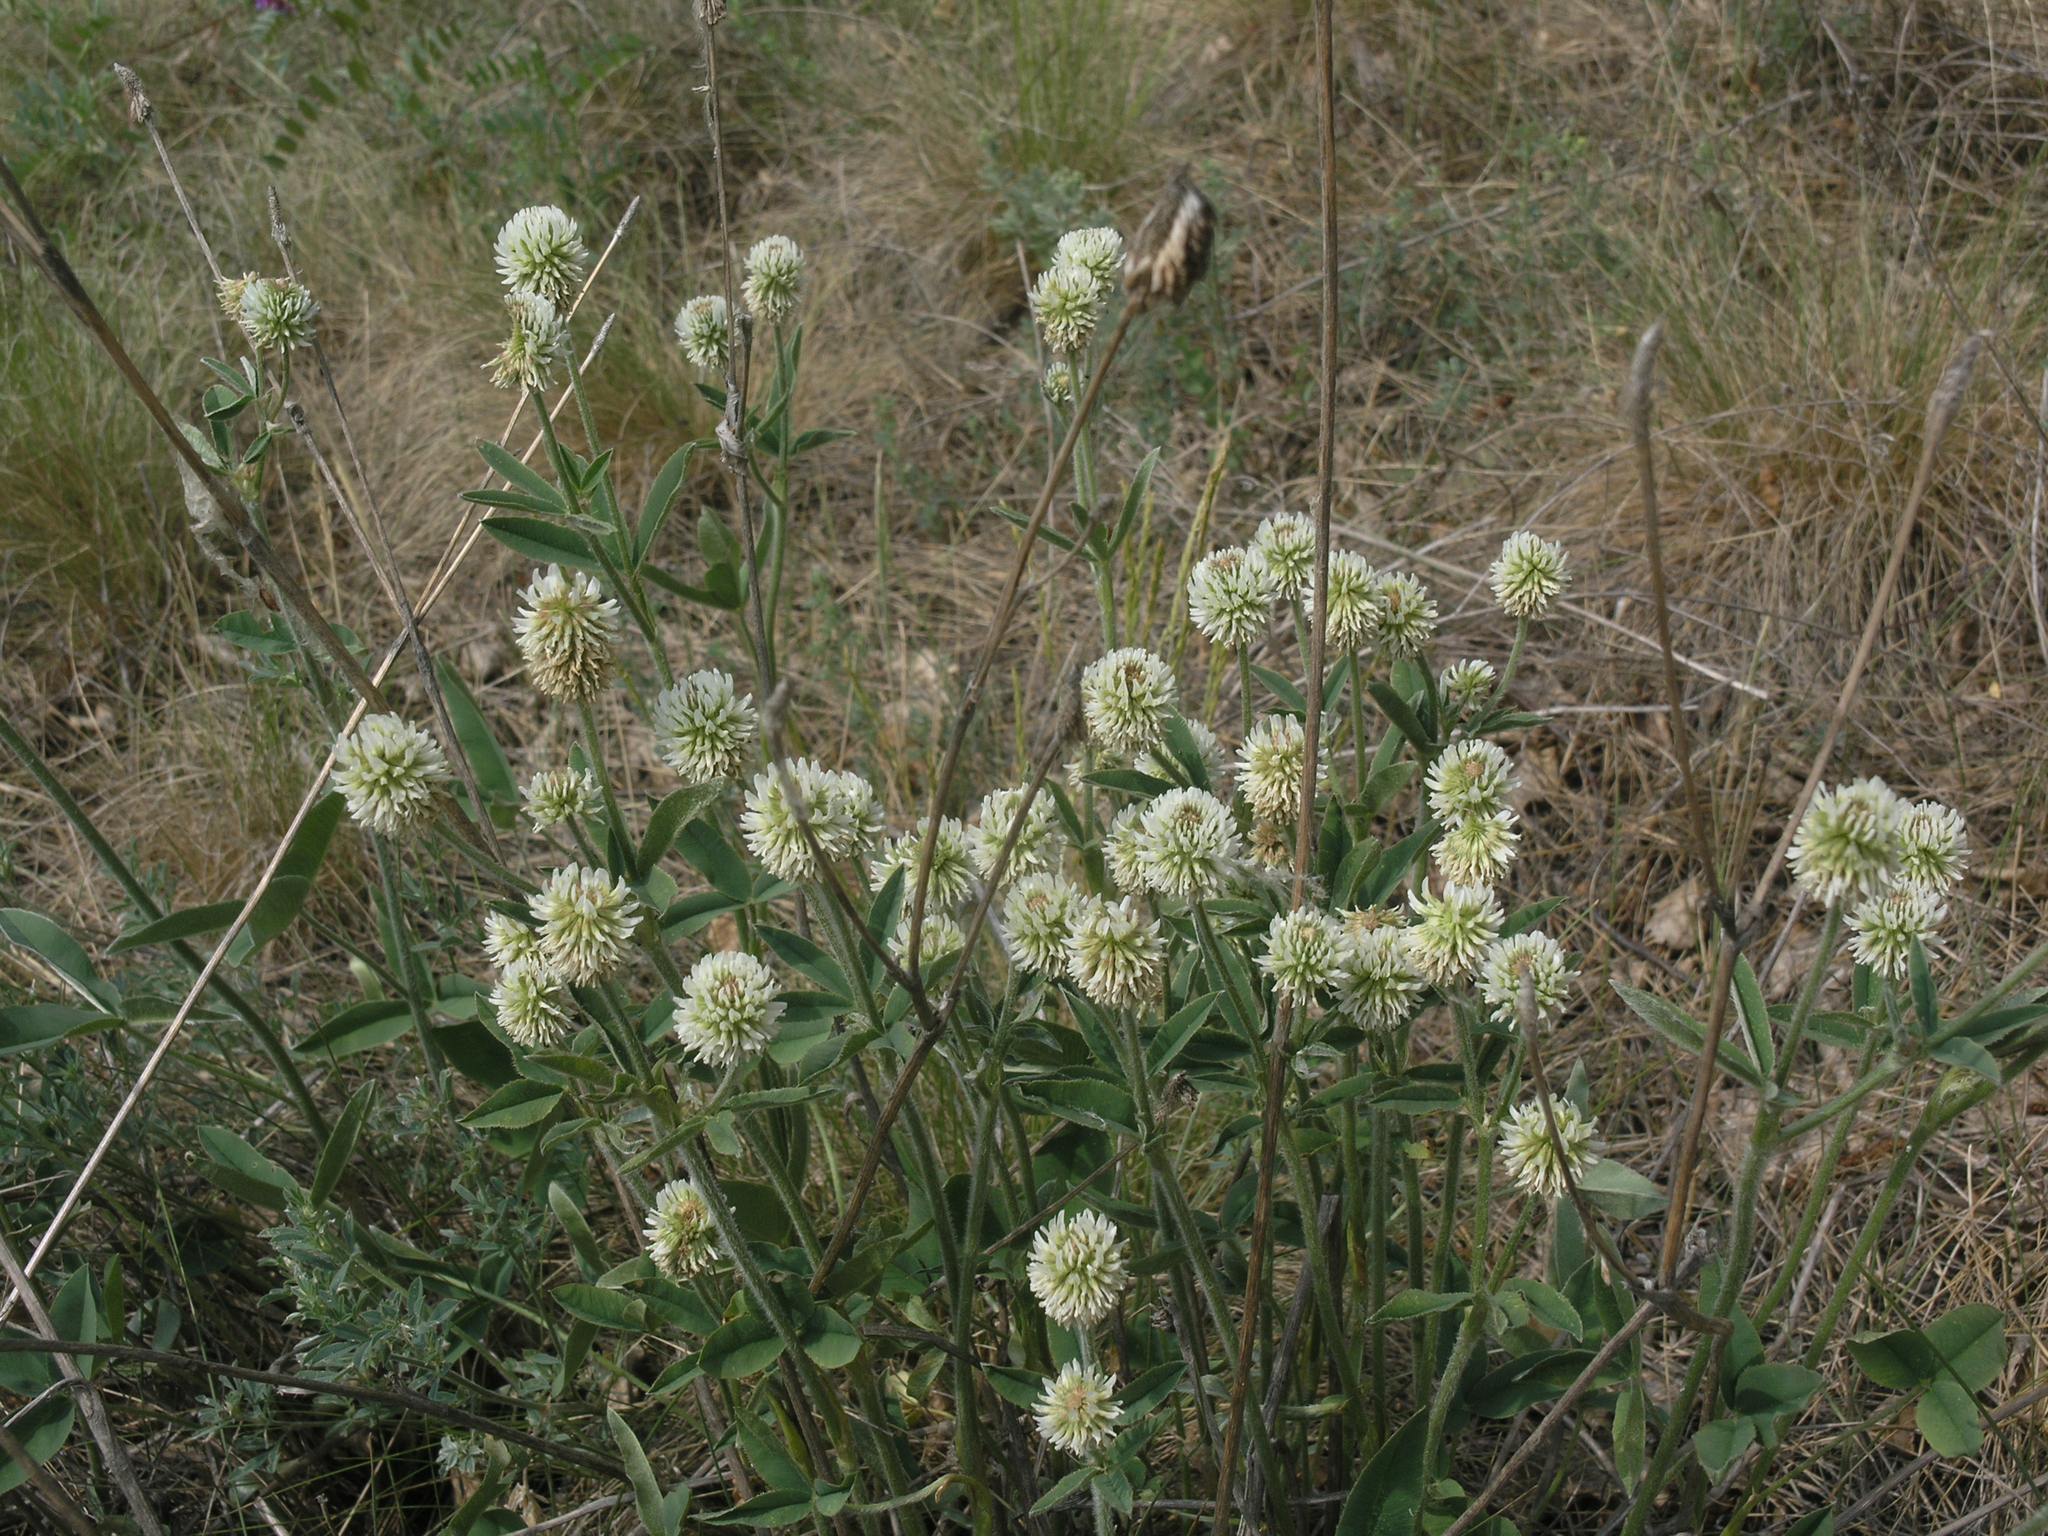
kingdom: Plantae
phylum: Tracheophyta
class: Magnoliopsida
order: Fabales
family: Fabaceae
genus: Trifolium
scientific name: Trifolium montanum
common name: Mountain clover
